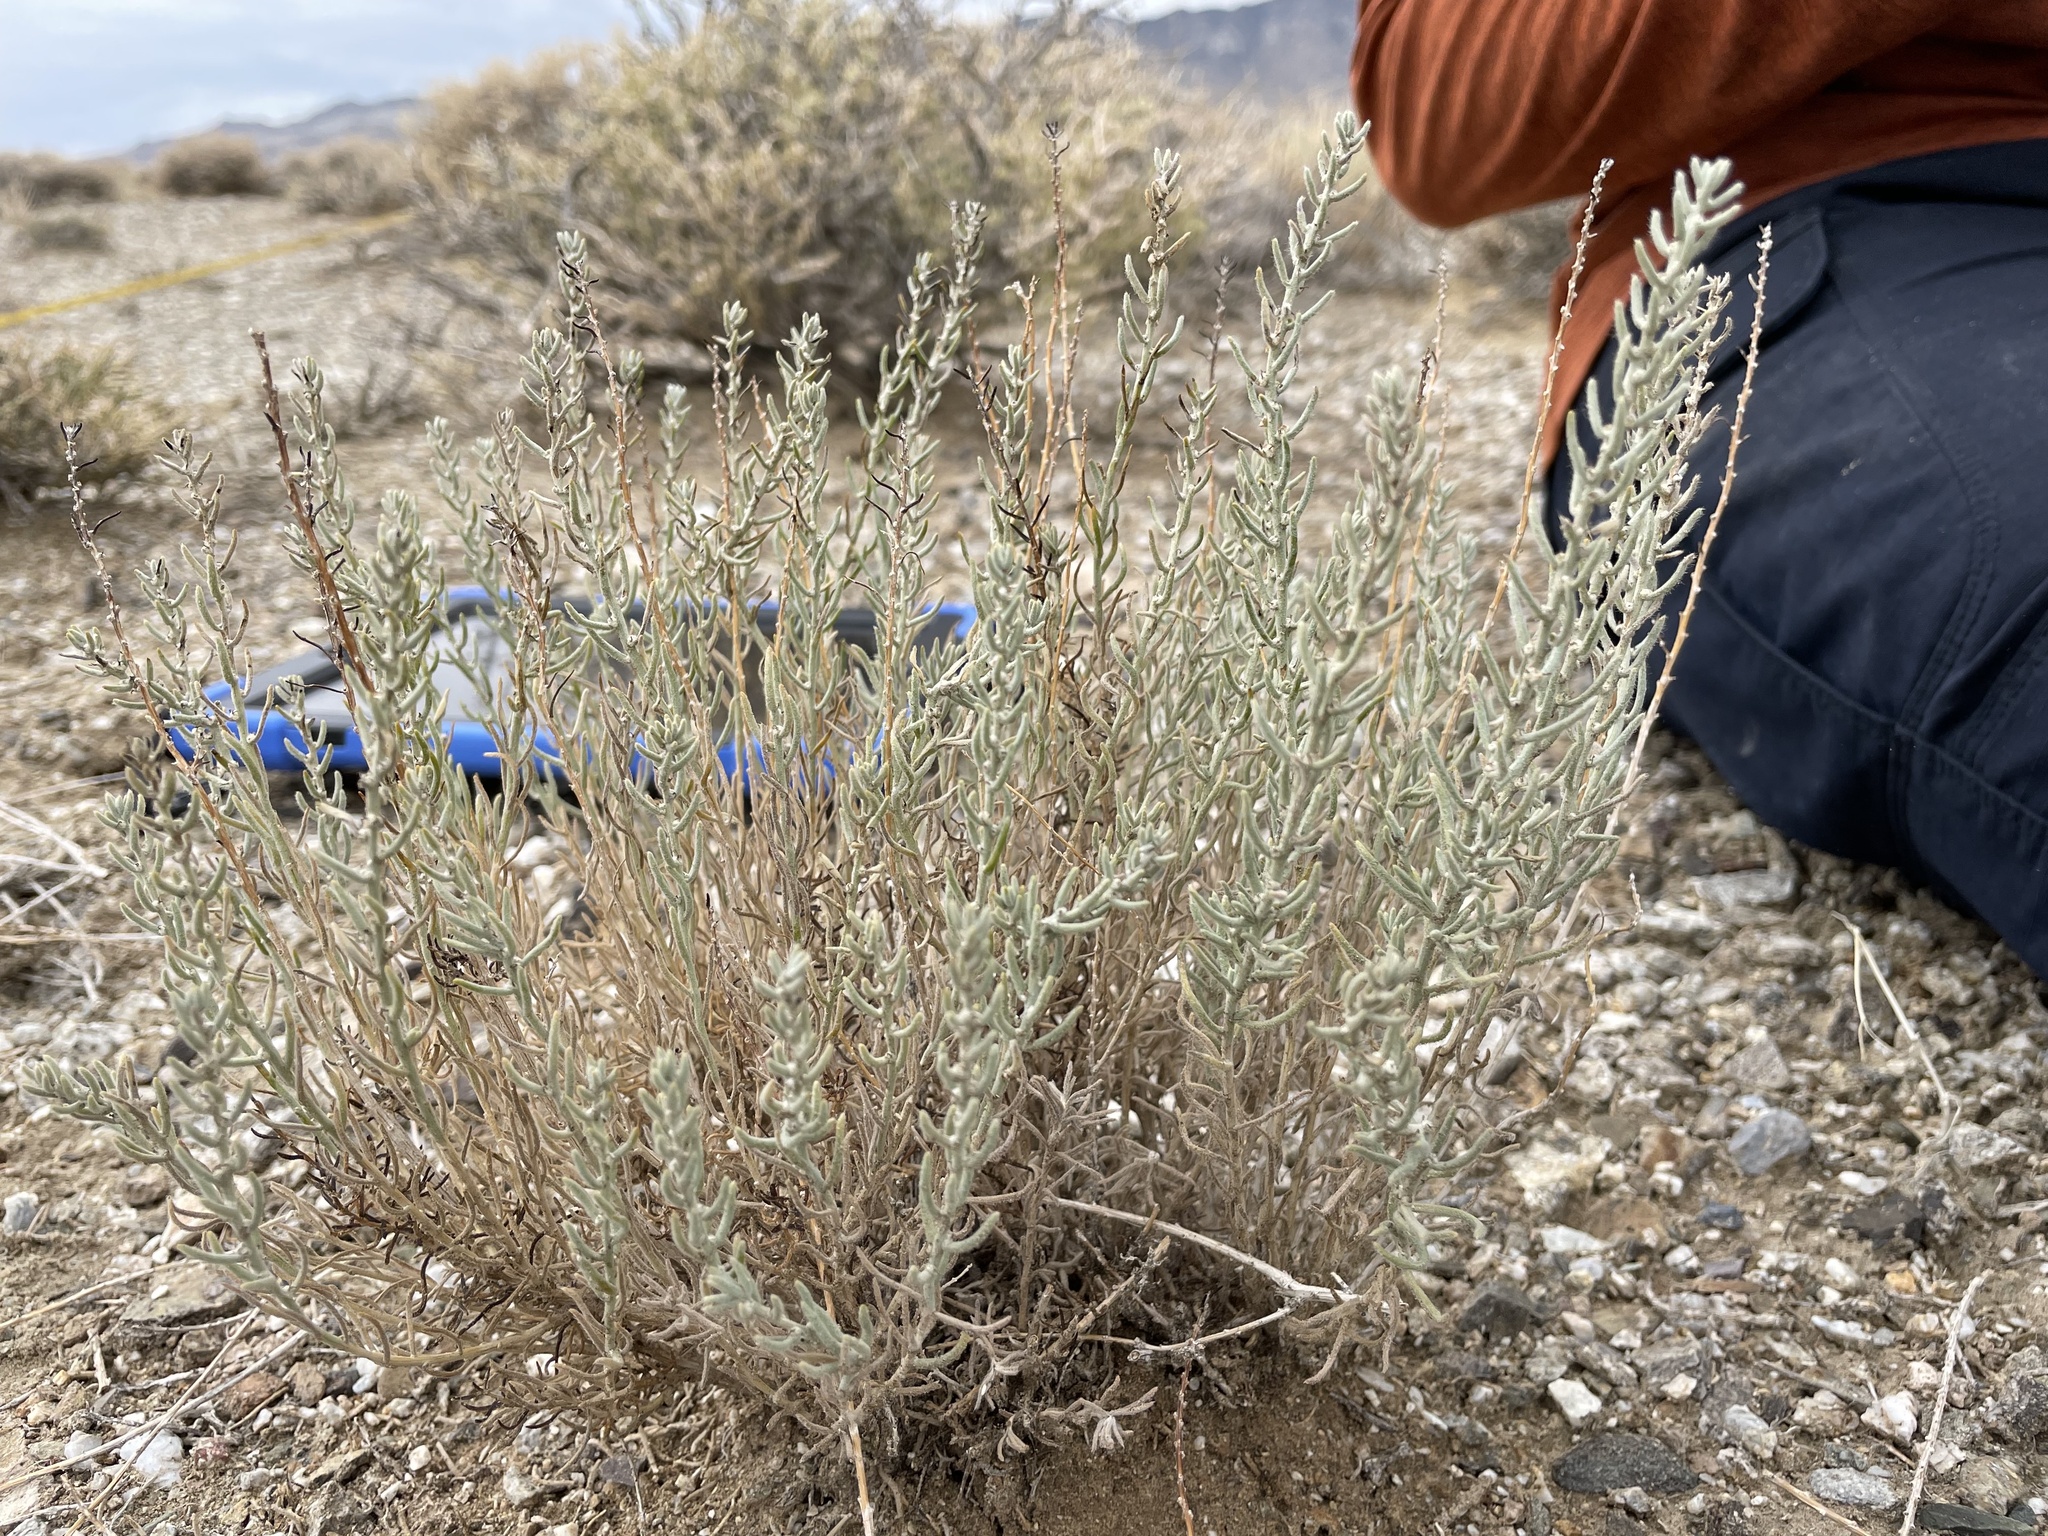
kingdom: Plantae
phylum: Tracheophyta
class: Magnoliopsida
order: Caryophyllales
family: Amaranthaceae
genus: Neokochia
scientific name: Neokochia americana
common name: Perennial summer-cypress
